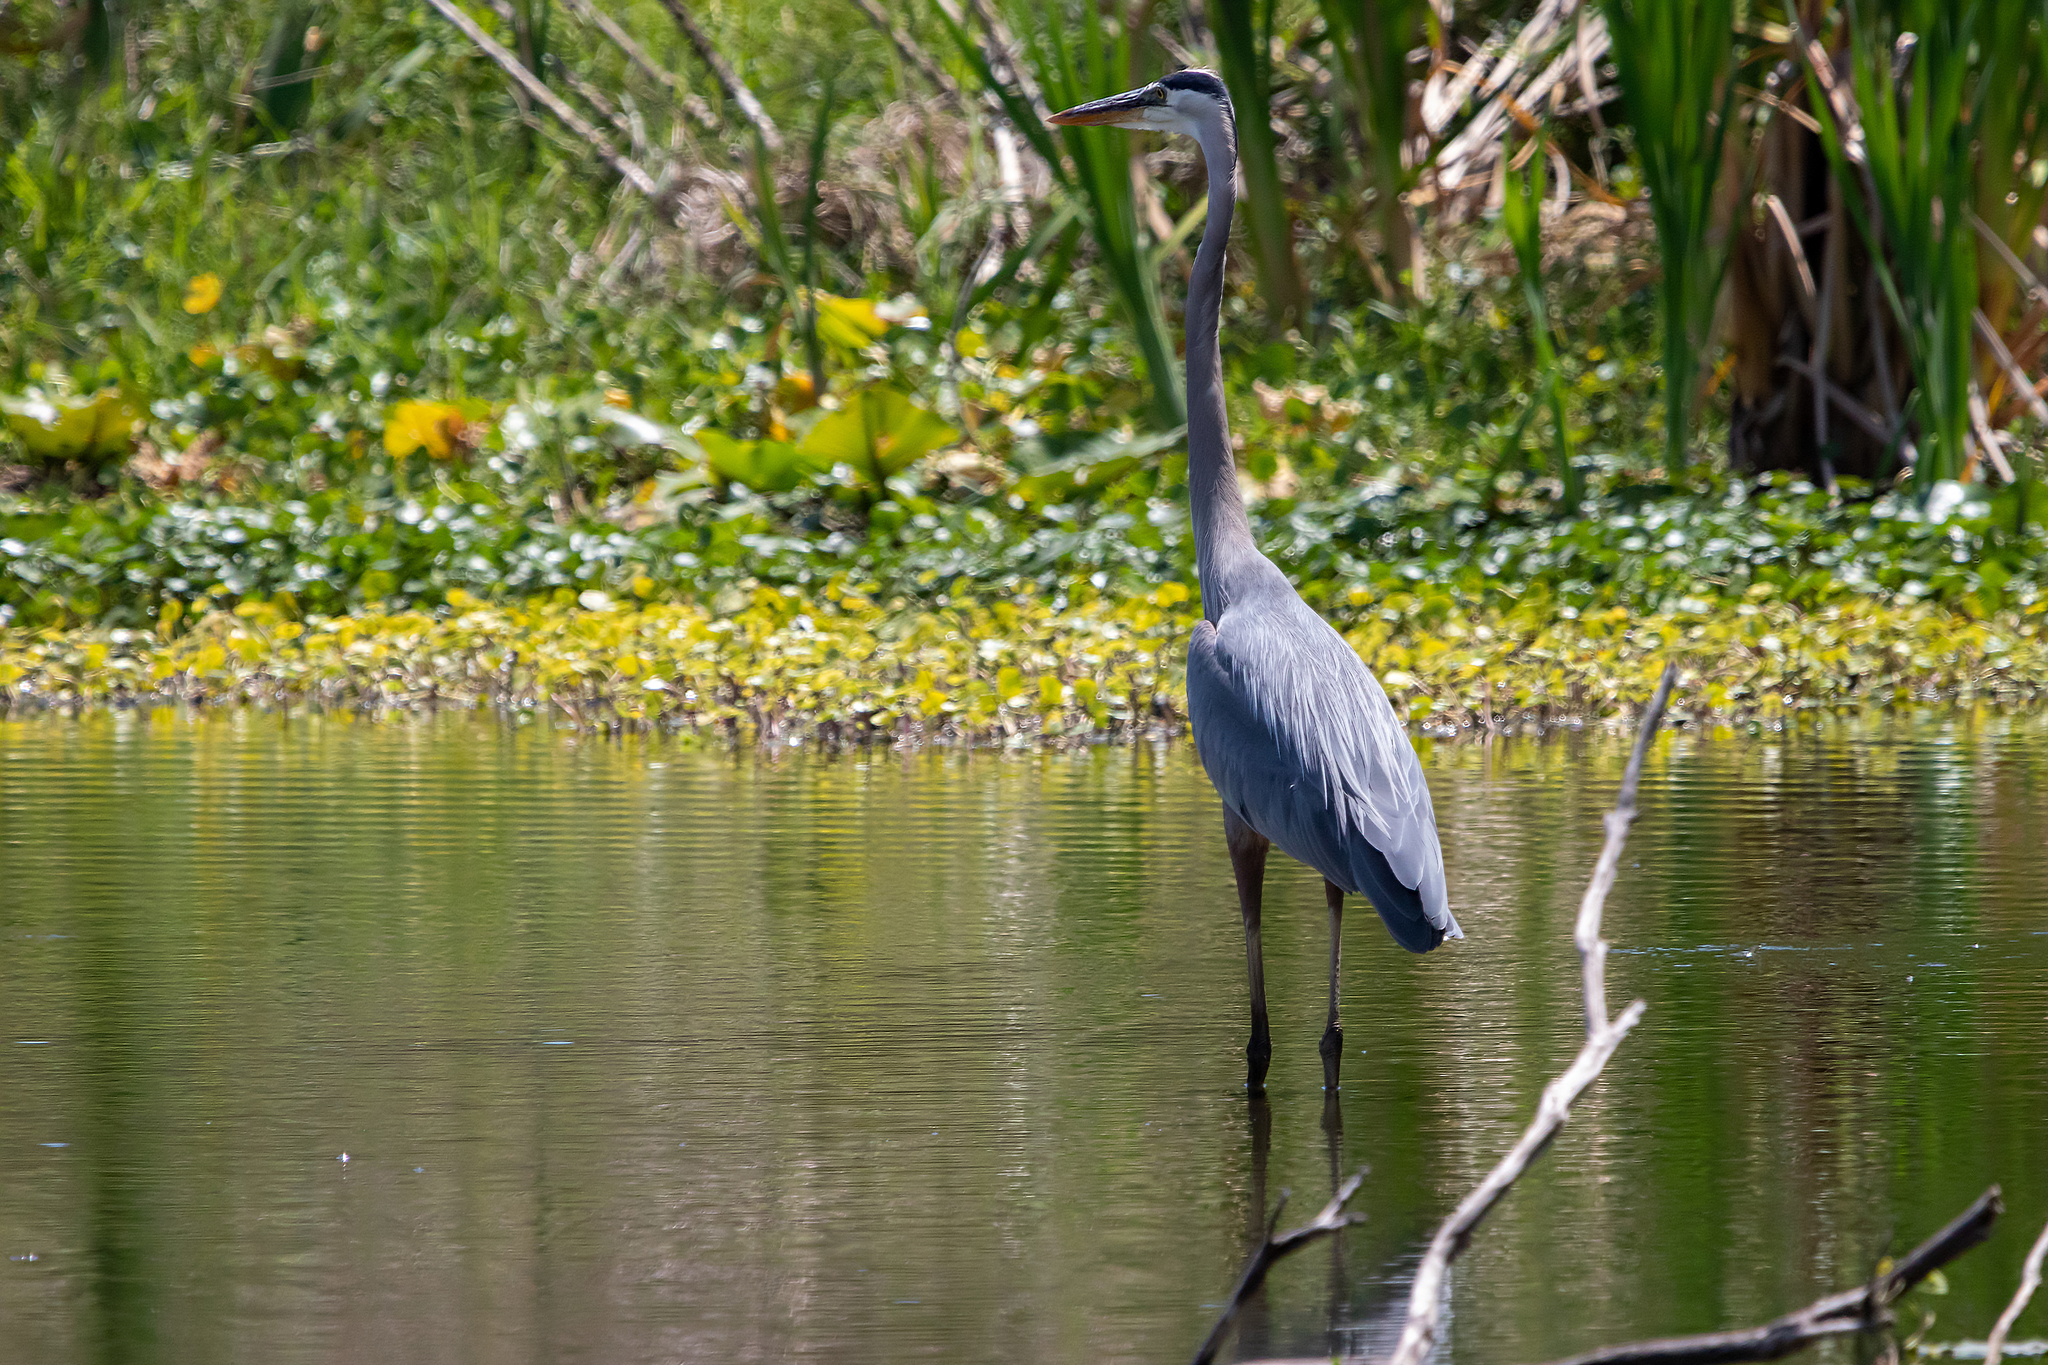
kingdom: Animalia
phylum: Chordata
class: Aves
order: Pelecaniformes
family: Ardeidae
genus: Ardea
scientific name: Ardea herodias
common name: Great blue heron
